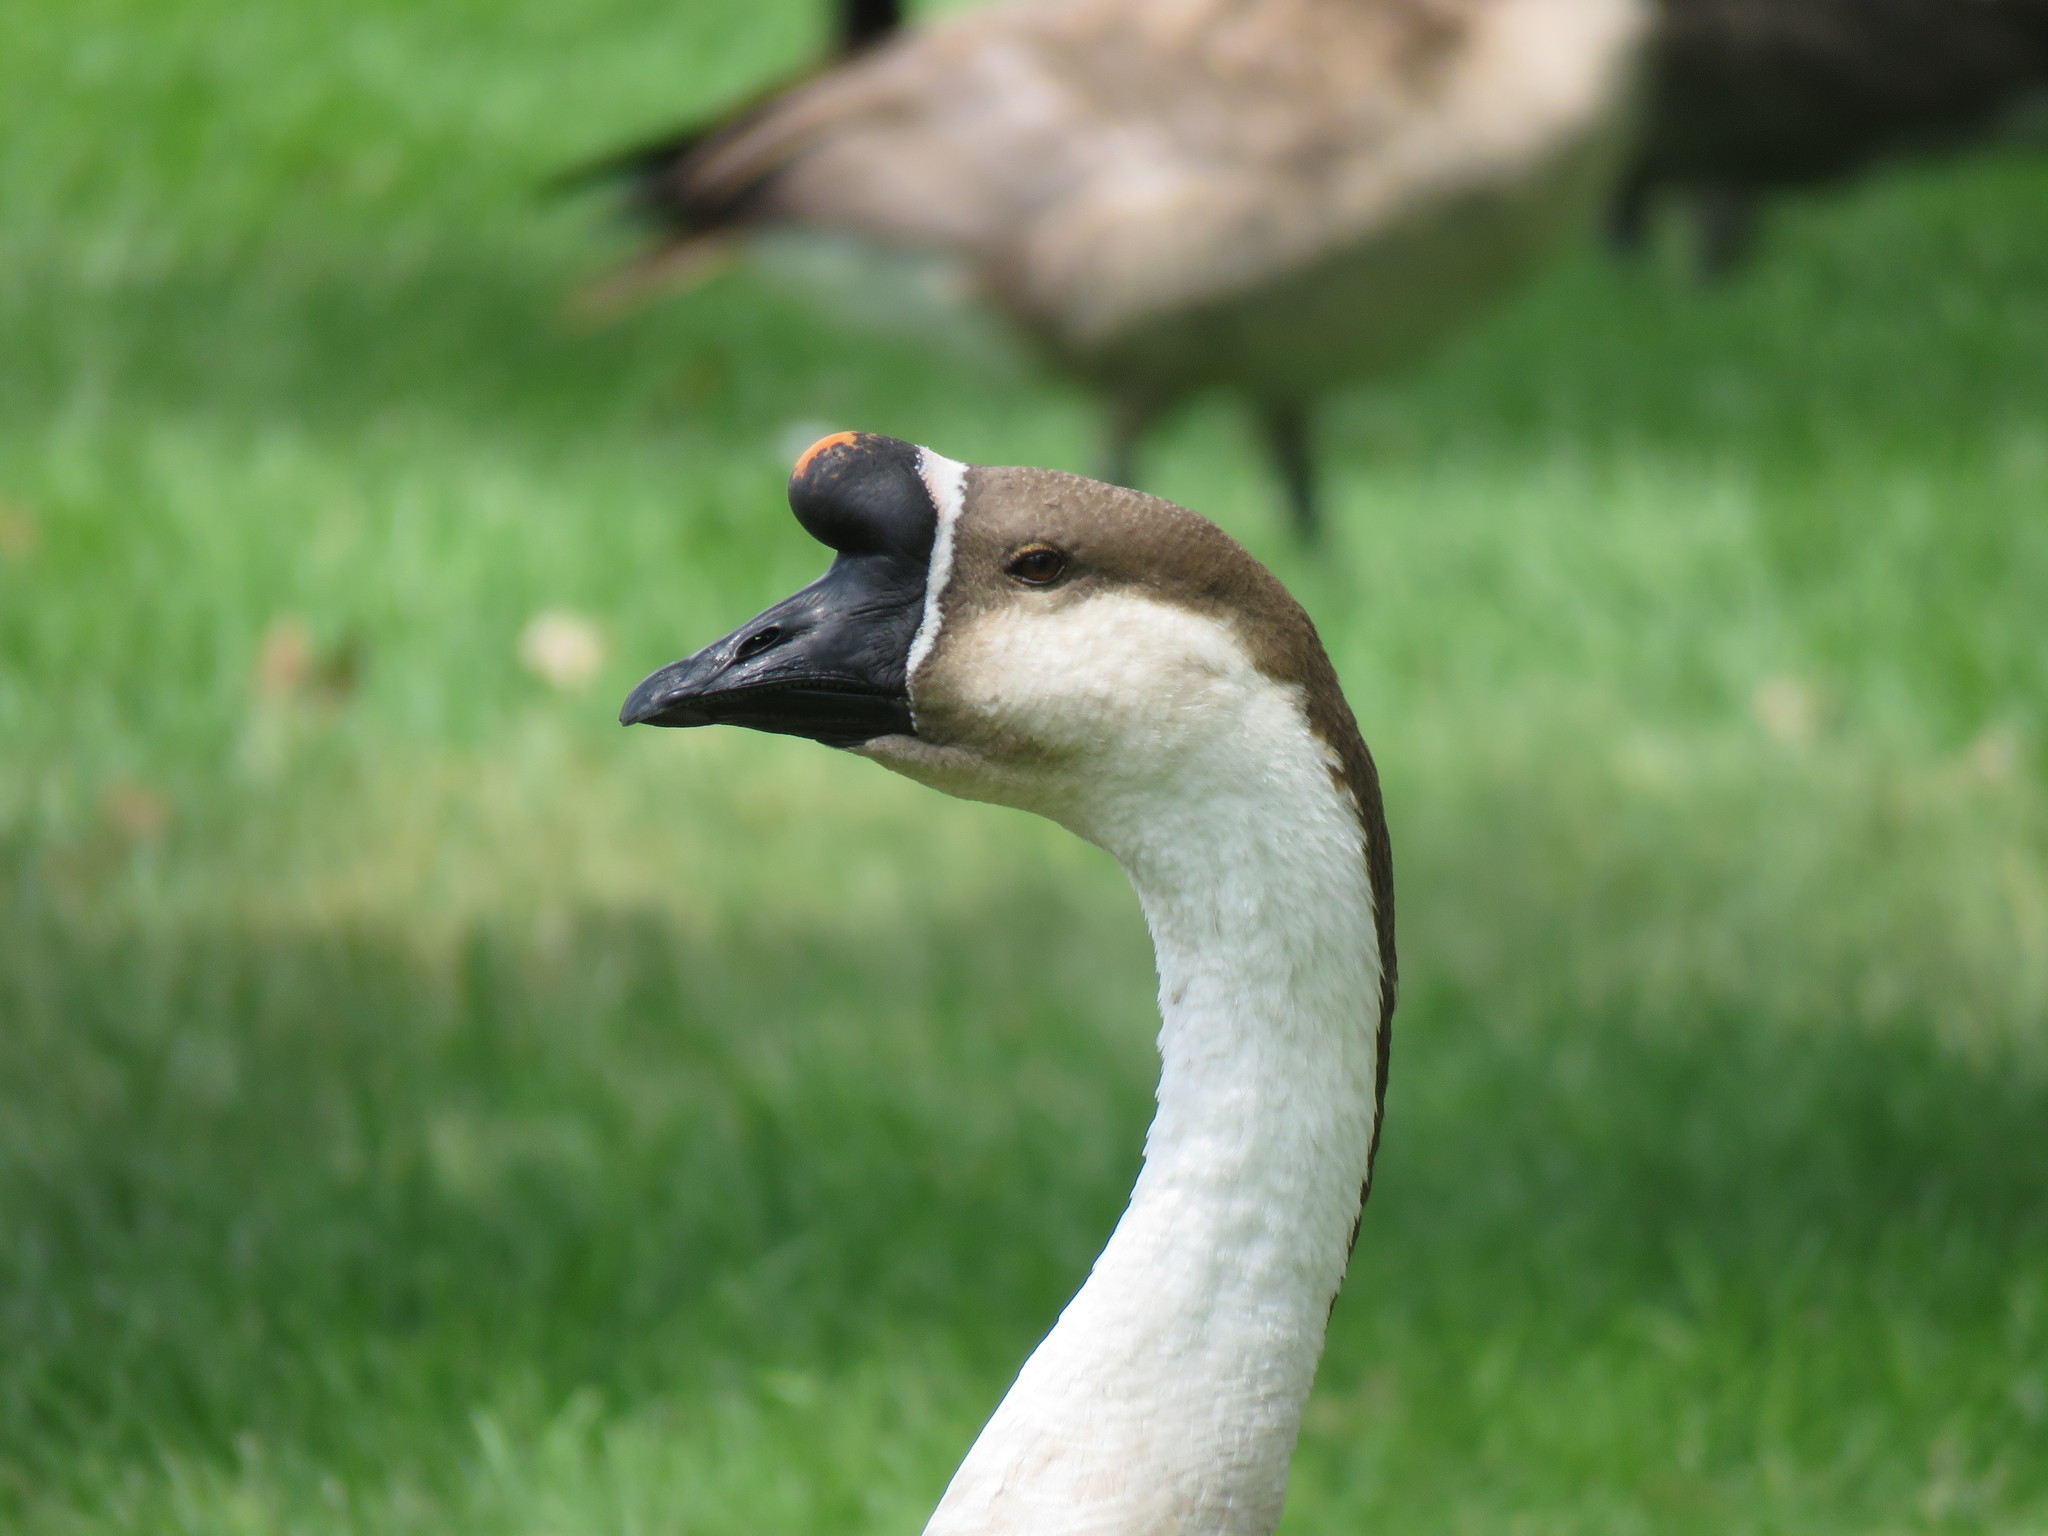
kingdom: Animalia
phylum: Chordata
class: Aves
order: Anseriformes
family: Anatidae
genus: Anser
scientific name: Anser cygnoides
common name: Swan goose
